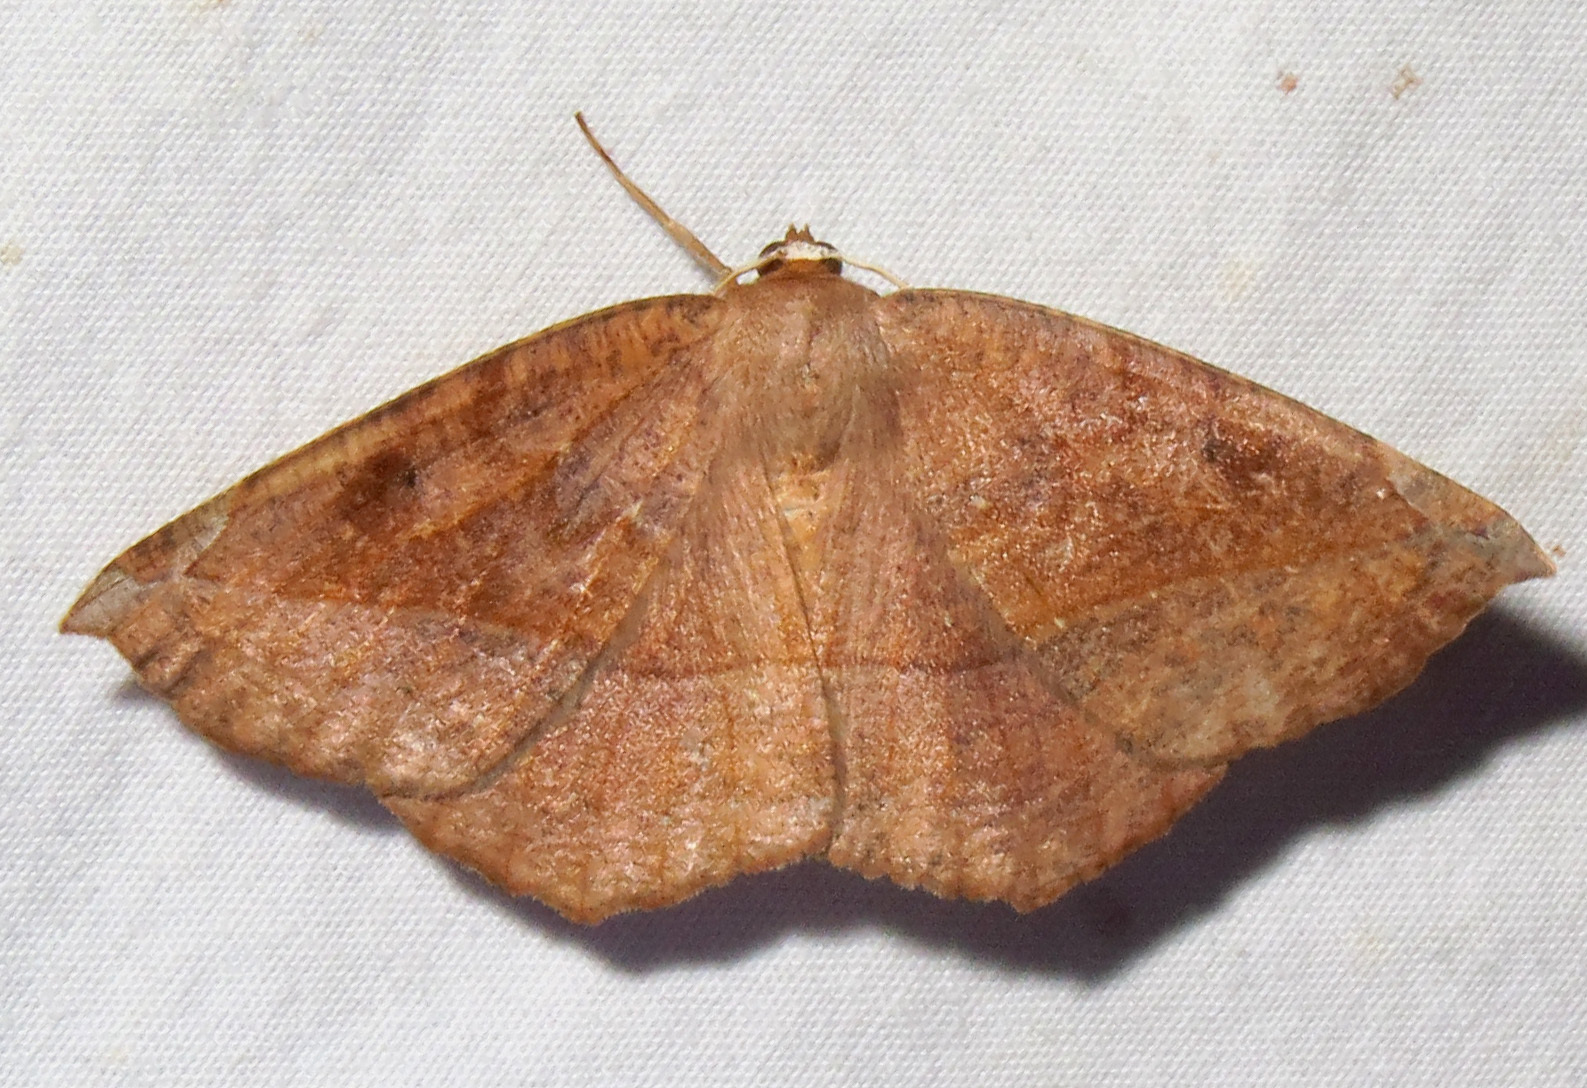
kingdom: Animalia
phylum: Arthropoda
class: Insecta
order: Lepidoptera
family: Geometridae
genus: Eutrapela
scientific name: Eutrapela clemataria
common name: Curved-toothed geometer
